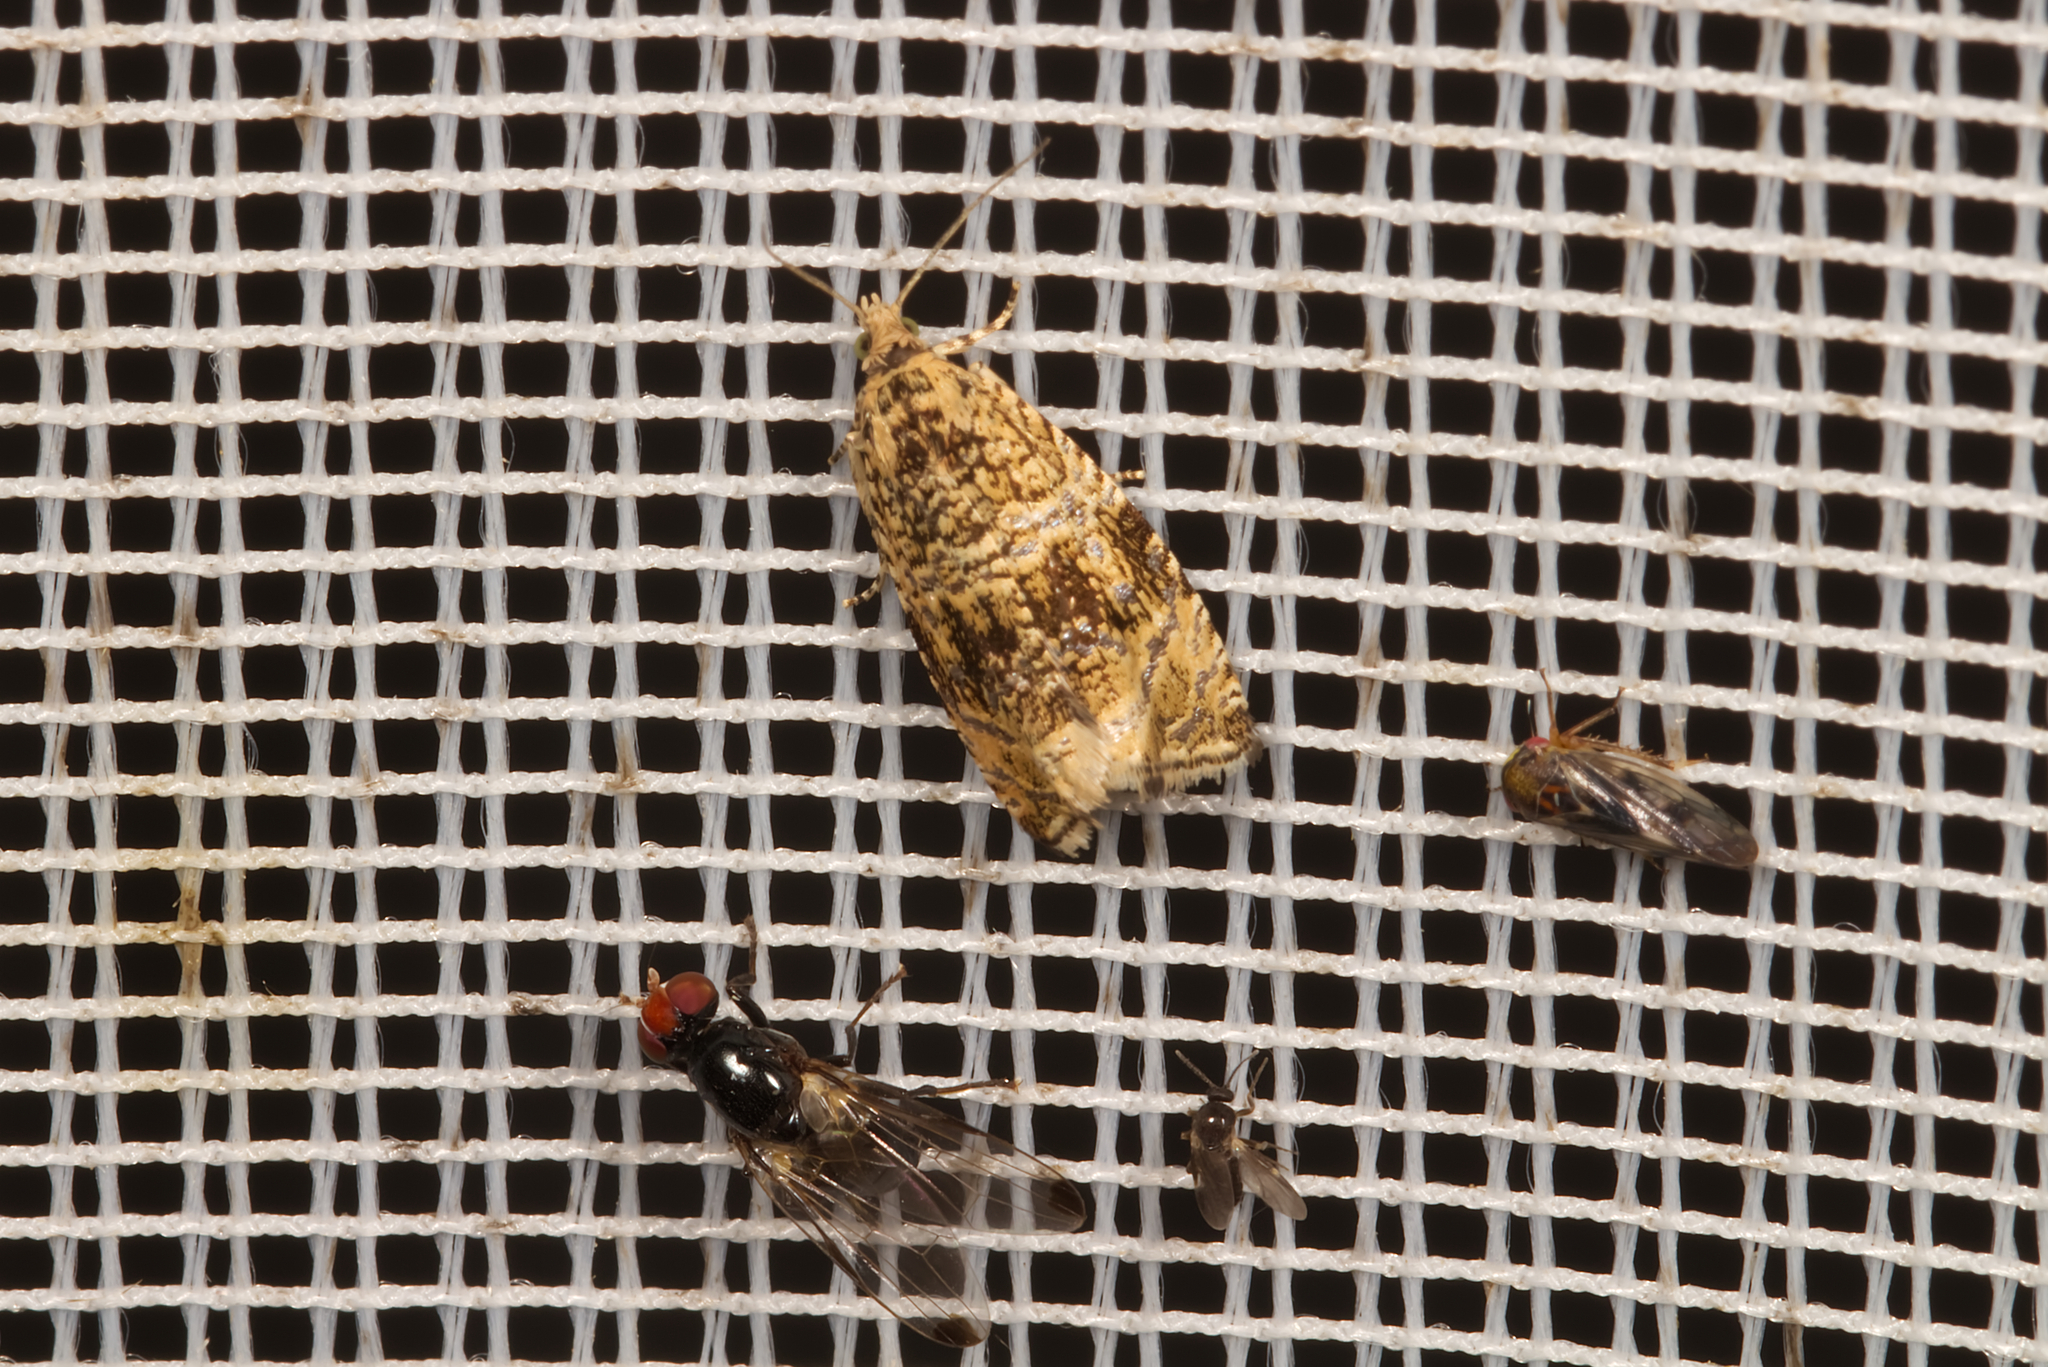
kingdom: Animalia
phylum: Arthropoda
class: Insecta
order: Lepidoptera
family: Tortricidae
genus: Syricoris
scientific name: Syricoris lacunana
